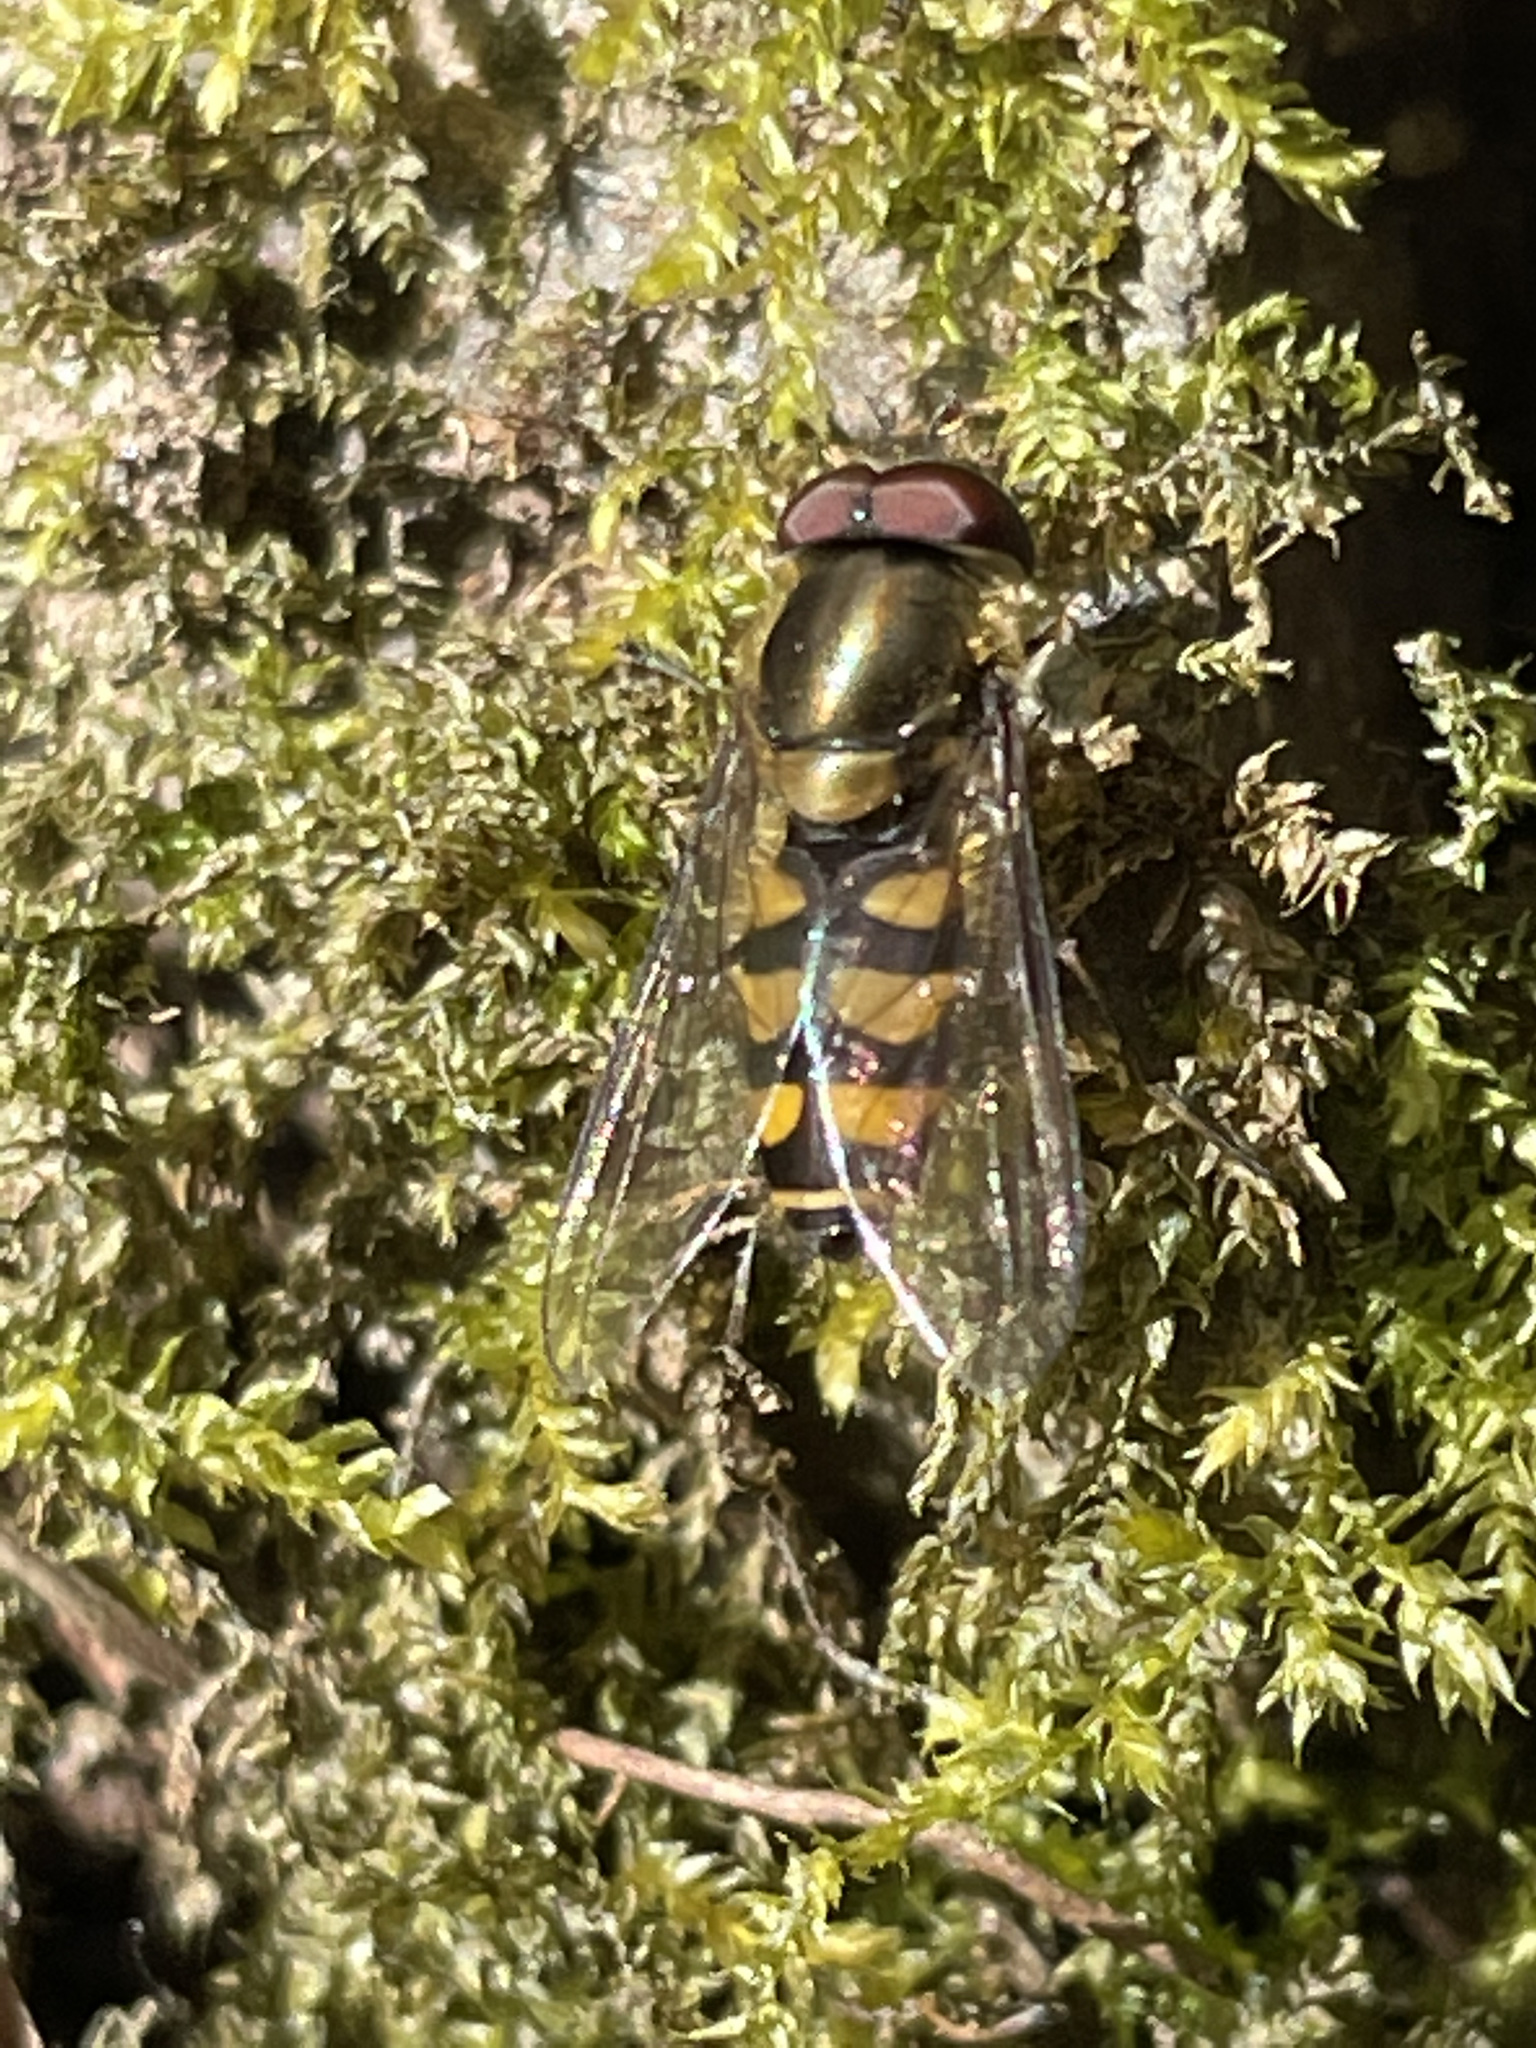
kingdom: Animalia
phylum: Arthropoda
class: Insecta
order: Diptera
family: Syrphidae
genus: Parasyrphus
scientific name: Parasyrphus punctulatus
